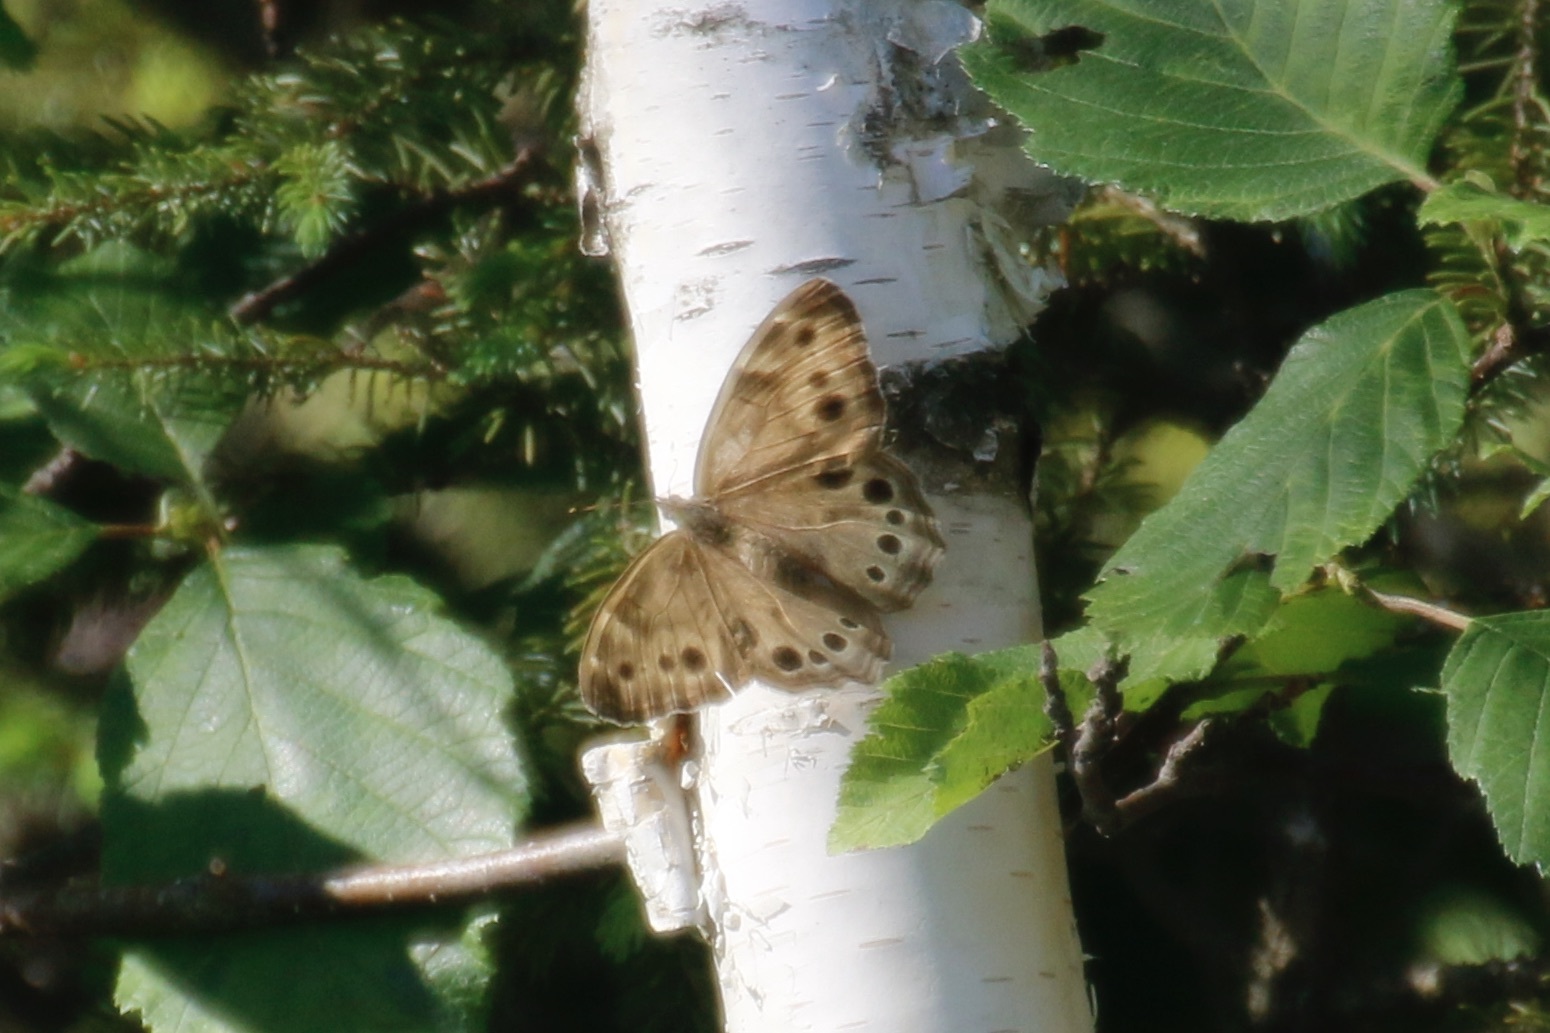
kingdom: Animalia
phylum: Arthropoda
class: Insecta
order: Lepidoptera
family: Nymphalidae
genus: Lethe
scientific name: Lethe anthedon
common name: Northern pearly-eye
